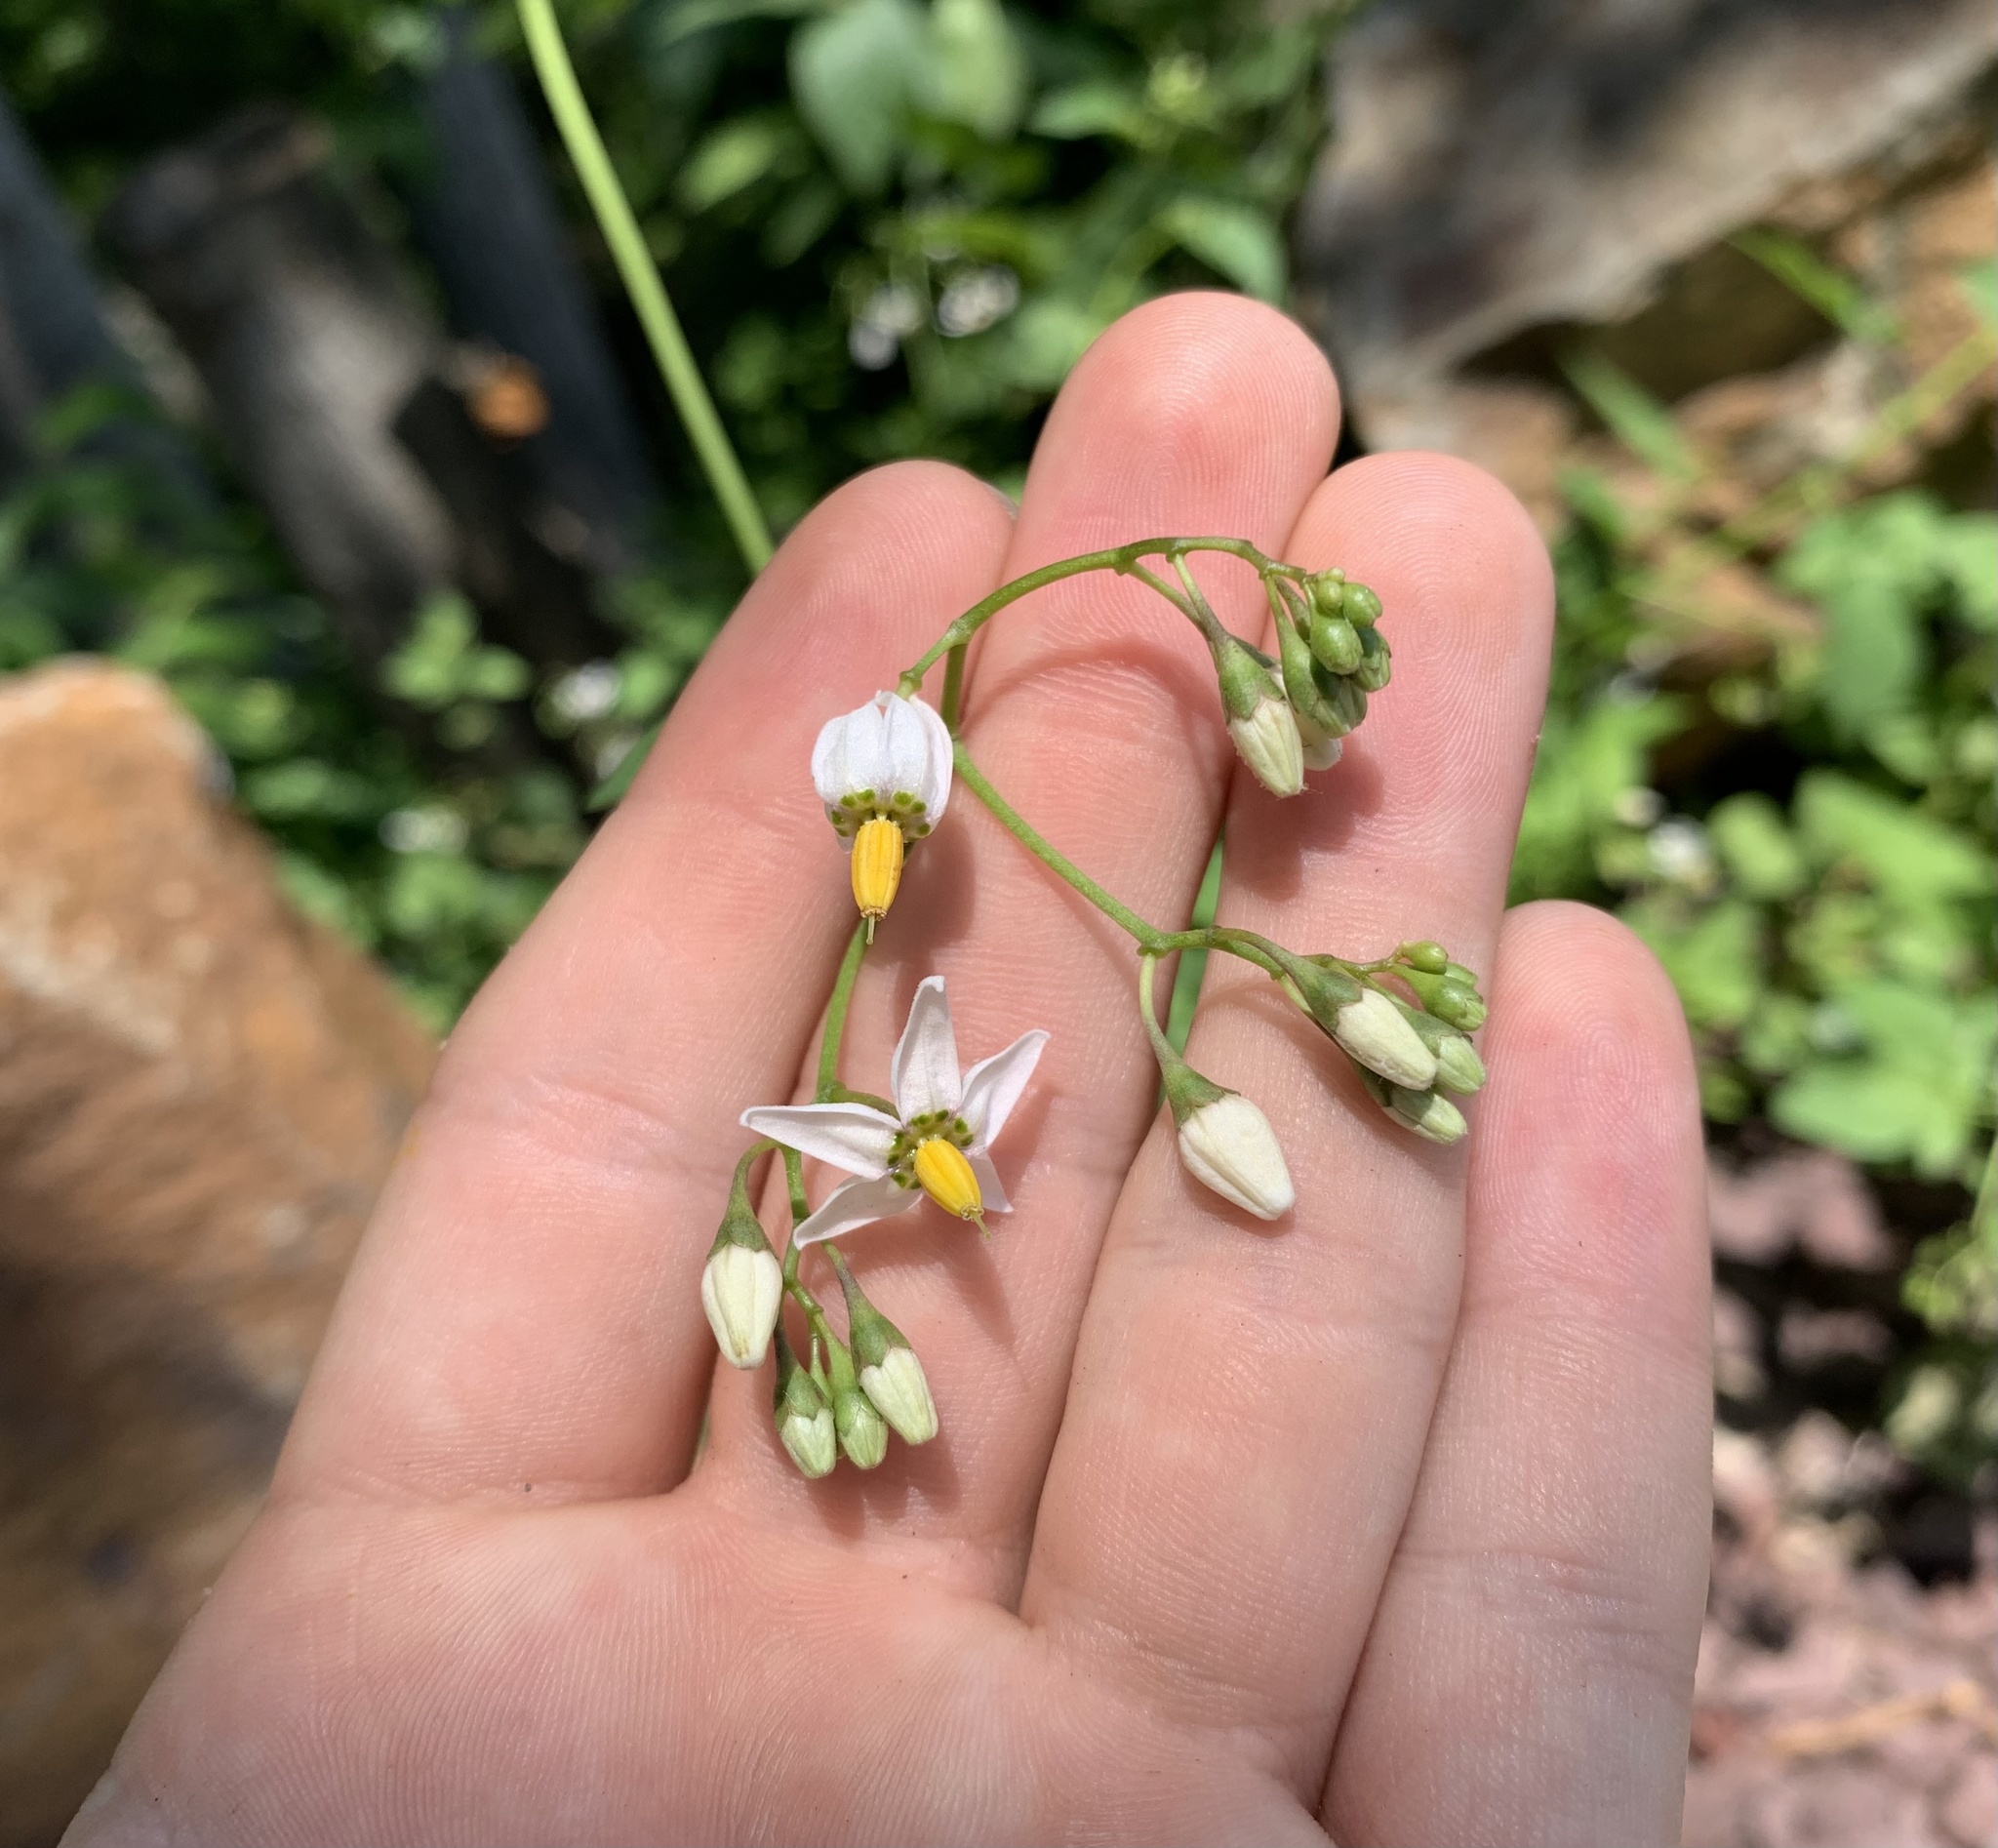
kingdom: Plantae
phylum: Tracheophyta
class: Magnoliopsida
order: Solanales
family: Solanaceae
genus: Solanum
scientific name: Solanum dulcamara
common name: Climbing nightshade
